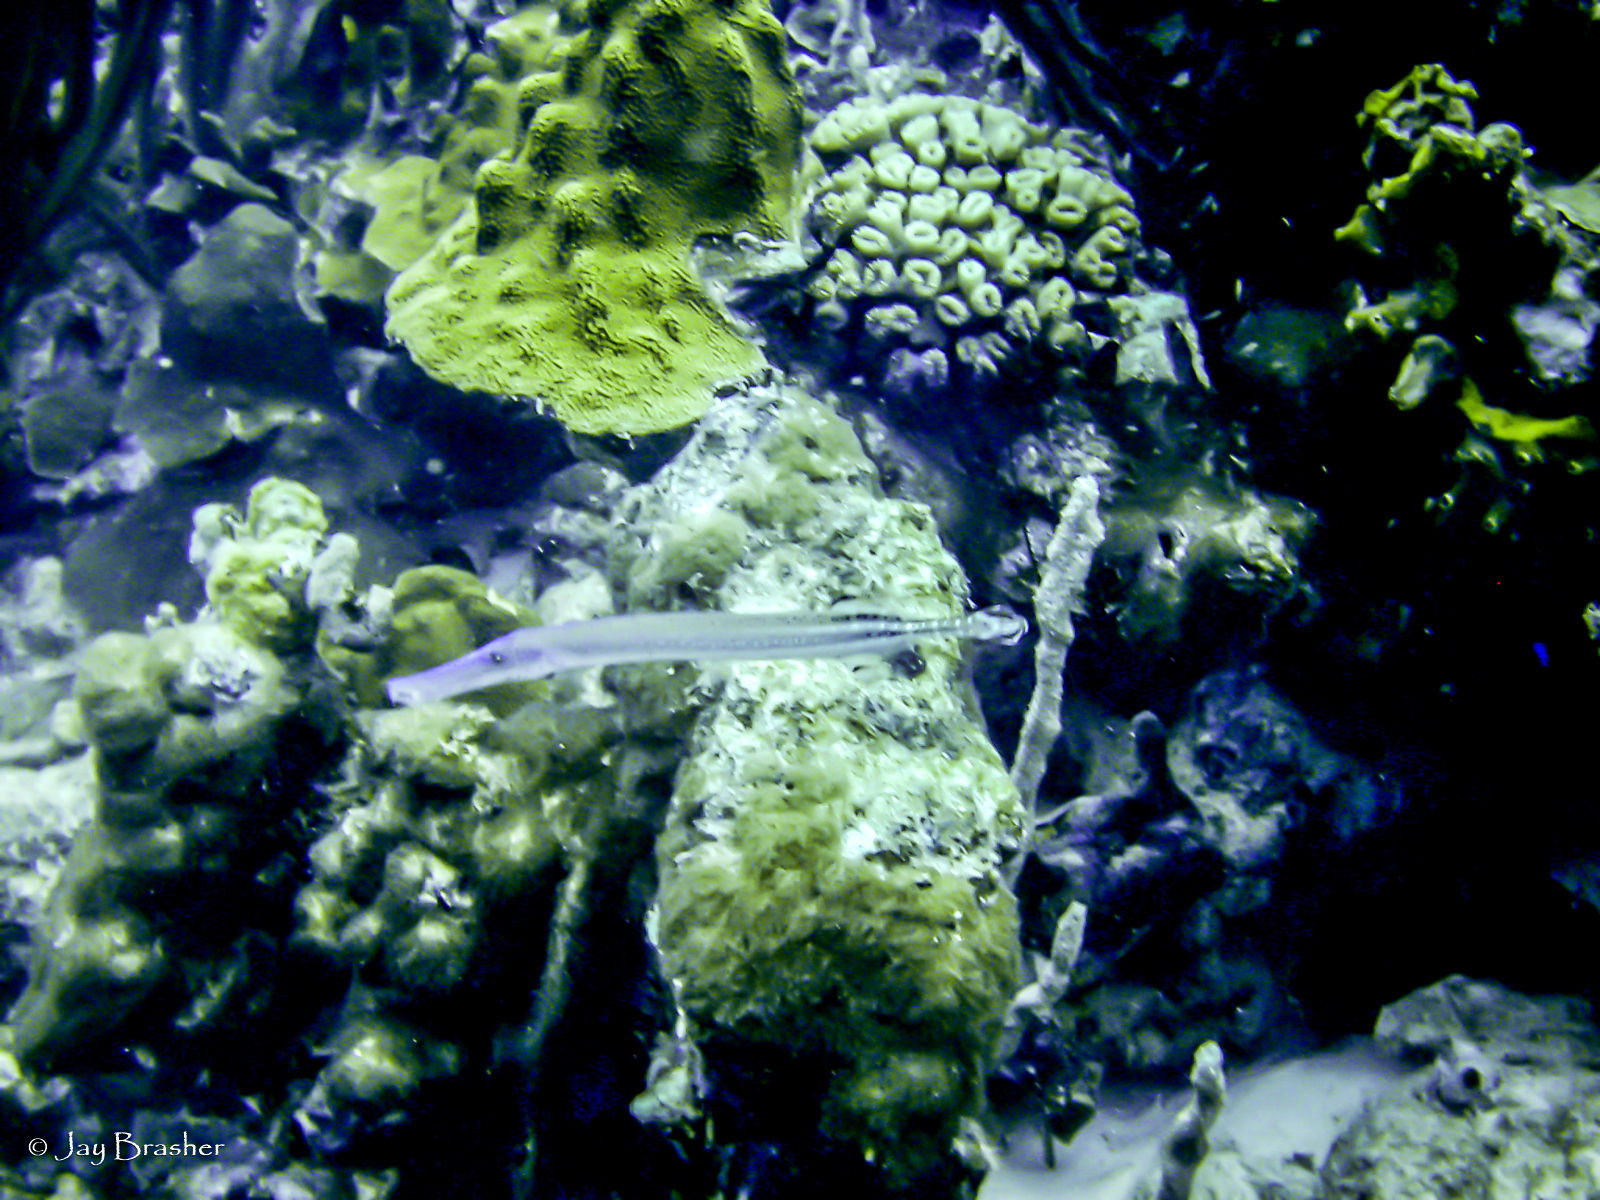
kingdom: Animalia
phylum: Chordata
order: Syngnathiformes
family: Aulostomidae
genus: Aulostomus
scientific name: Aulostomus maculatus
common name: West atlantic trumpetfish
